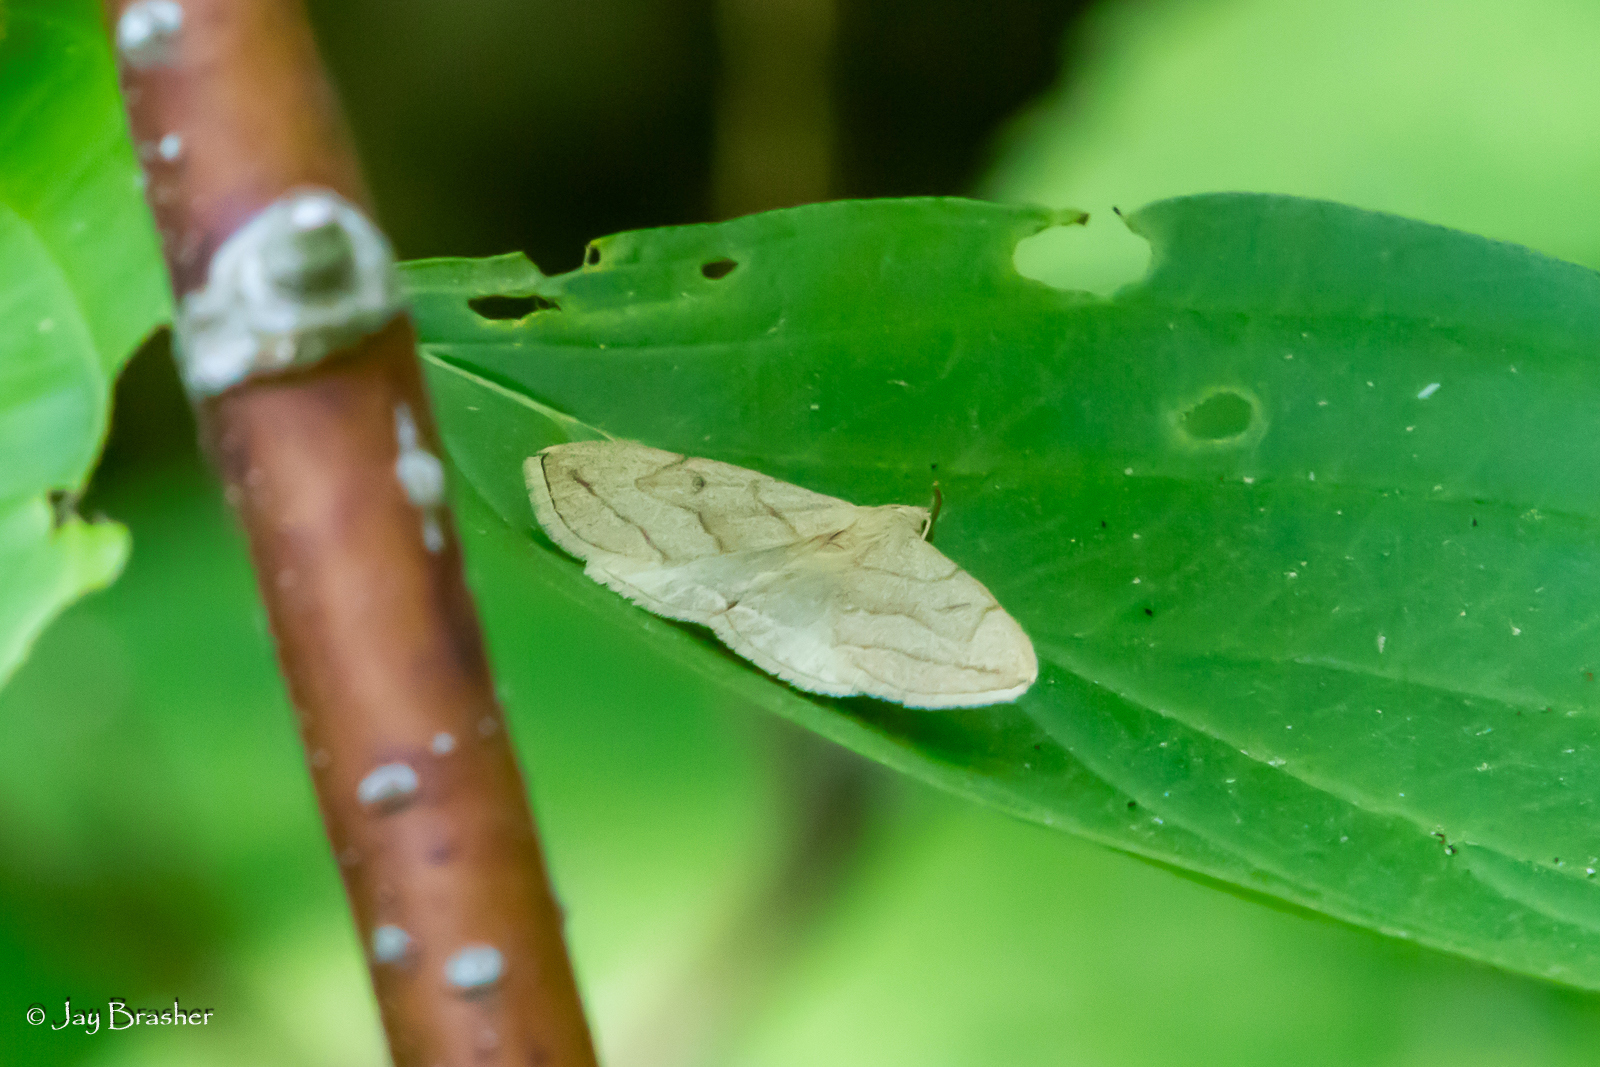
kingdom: Animalia
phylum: Arthropoda
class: Insecta
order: Lepidoptera
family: Erebidae
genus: Zanclognatha
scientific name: Zanclognatha pedipilalis
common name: Grayish fan-foot
